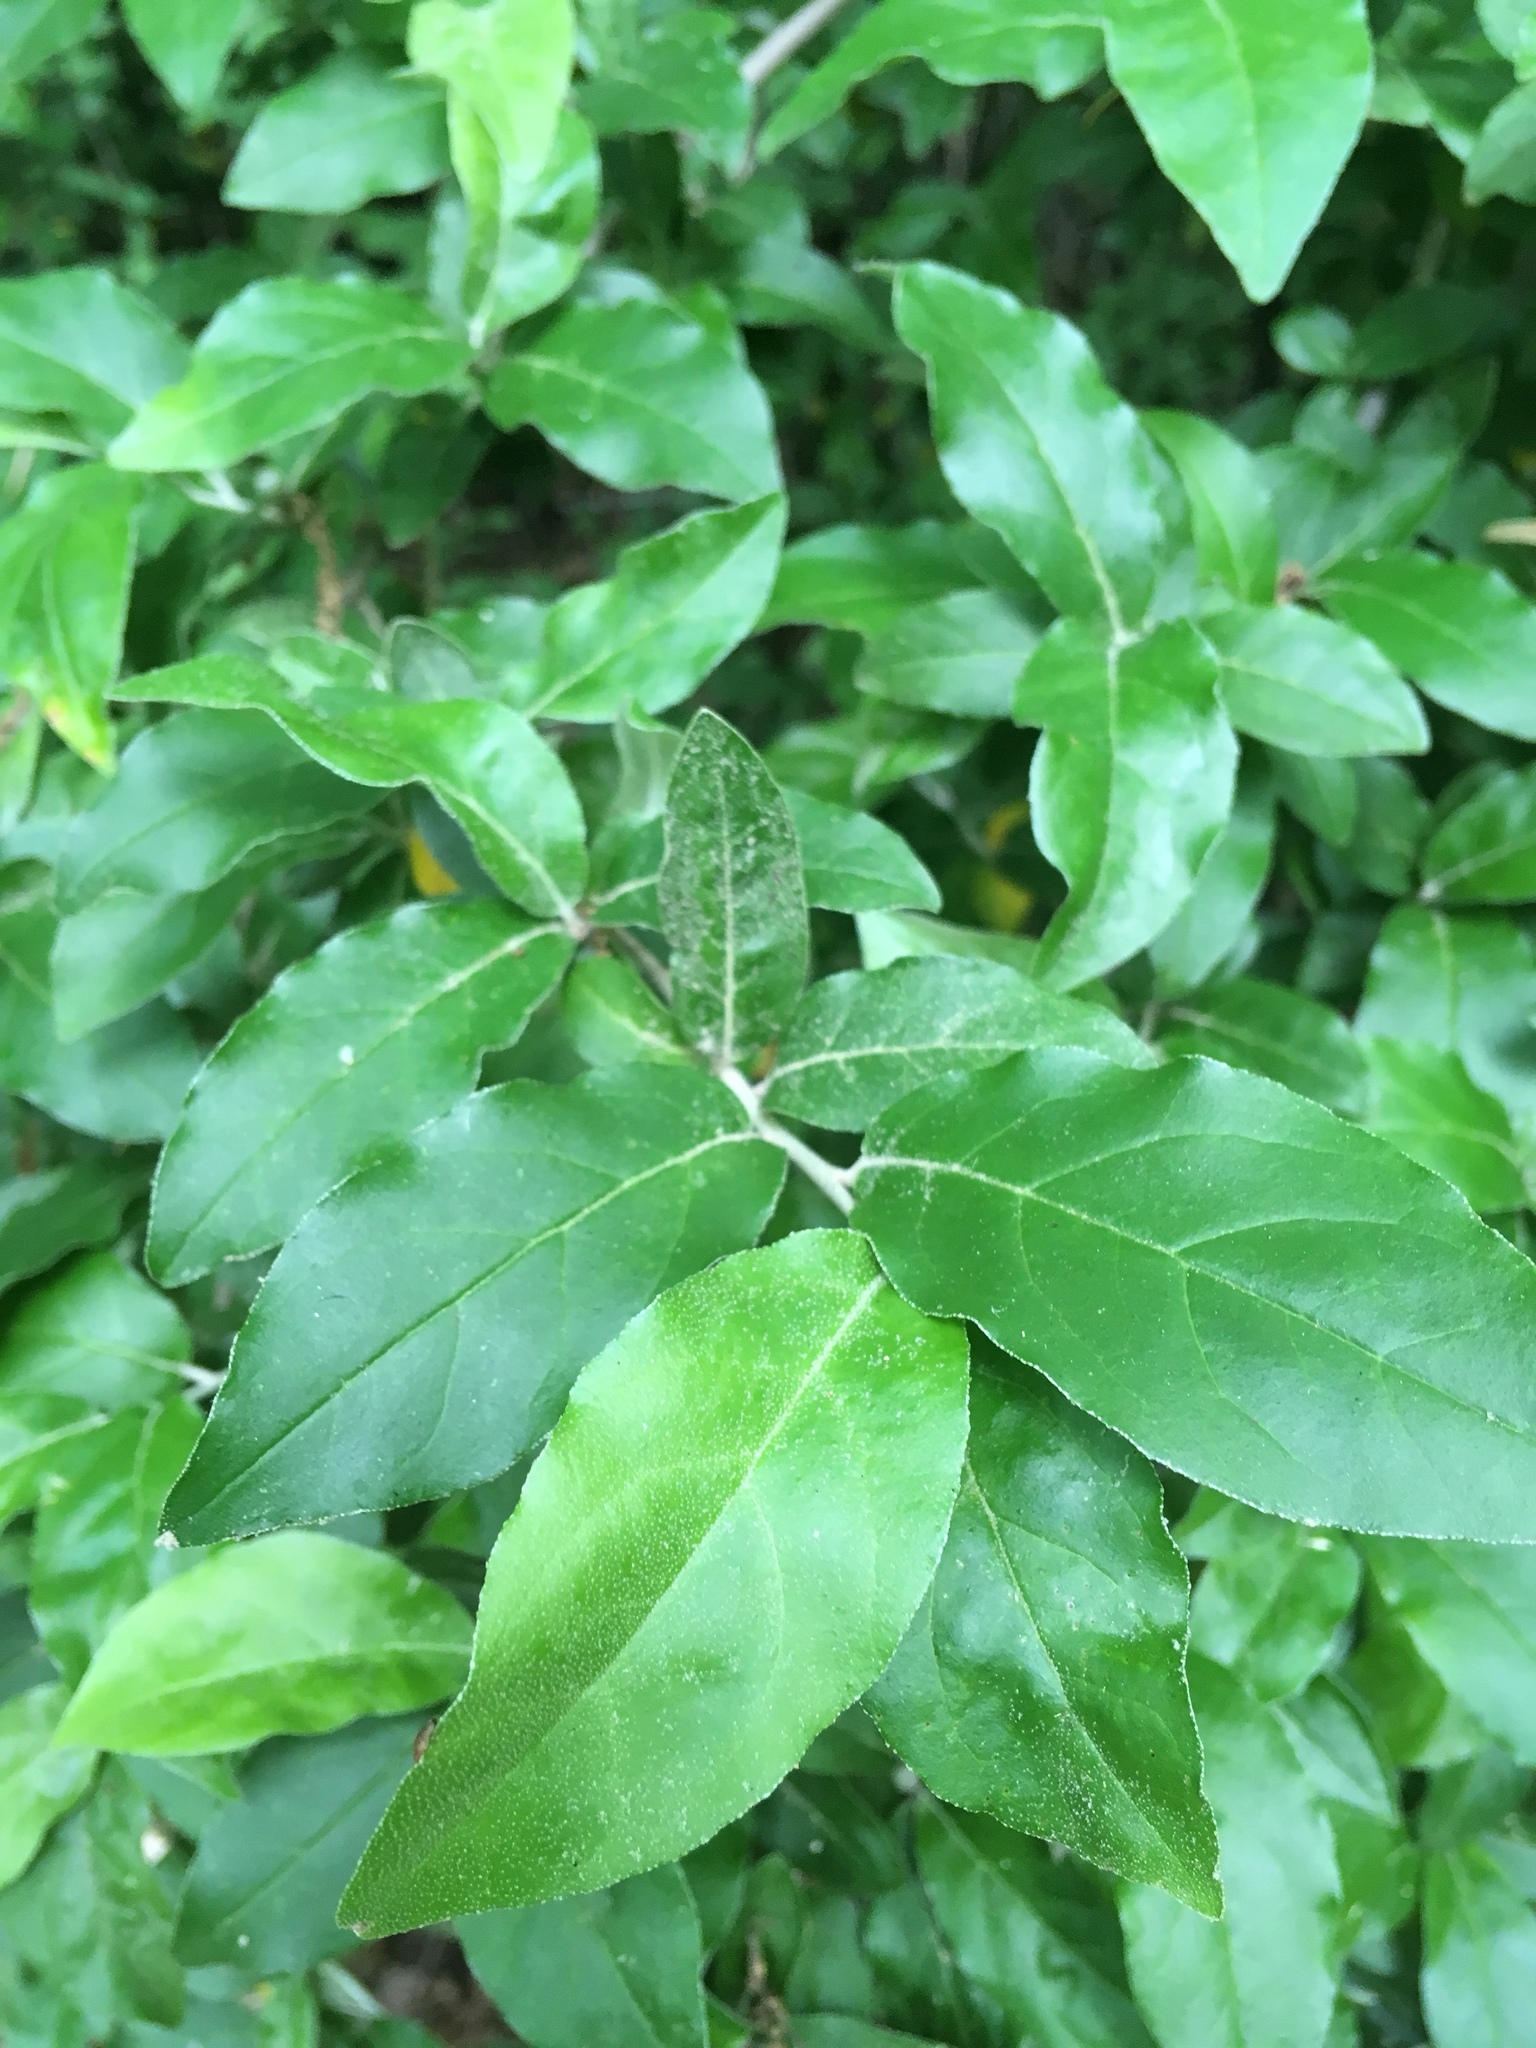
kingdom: Plantae
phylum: Tracheophyta
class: Magnoliopsida
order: Rosales
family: Elaeagnaceae
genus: Elaeagnus
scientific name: Elaeagnus umbellata
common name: Autumn olive
